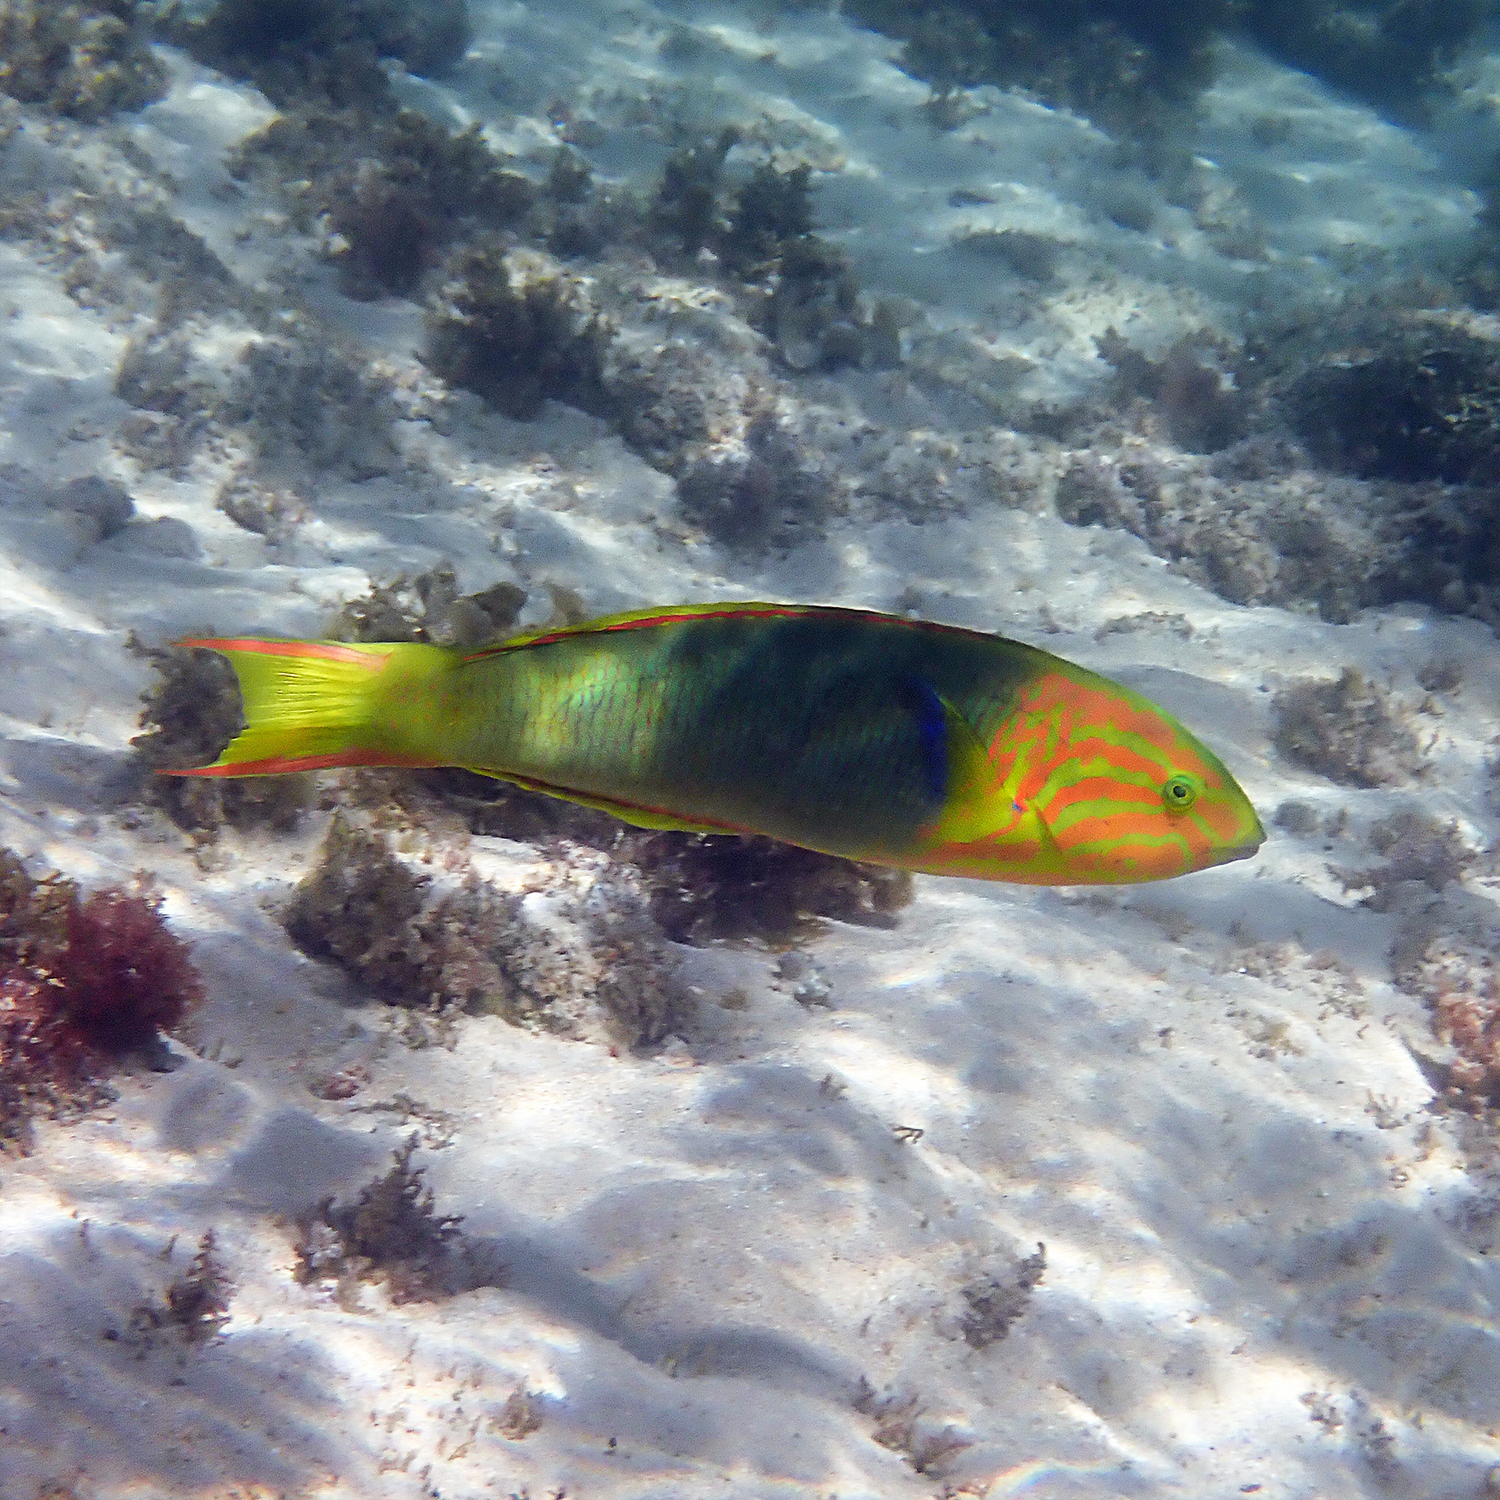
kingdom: Animalia
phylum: Chordata
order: Perciformes
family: Labridae
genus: Thalassoma
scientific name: Thalassoma lutescens
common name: Green moon wrasse
